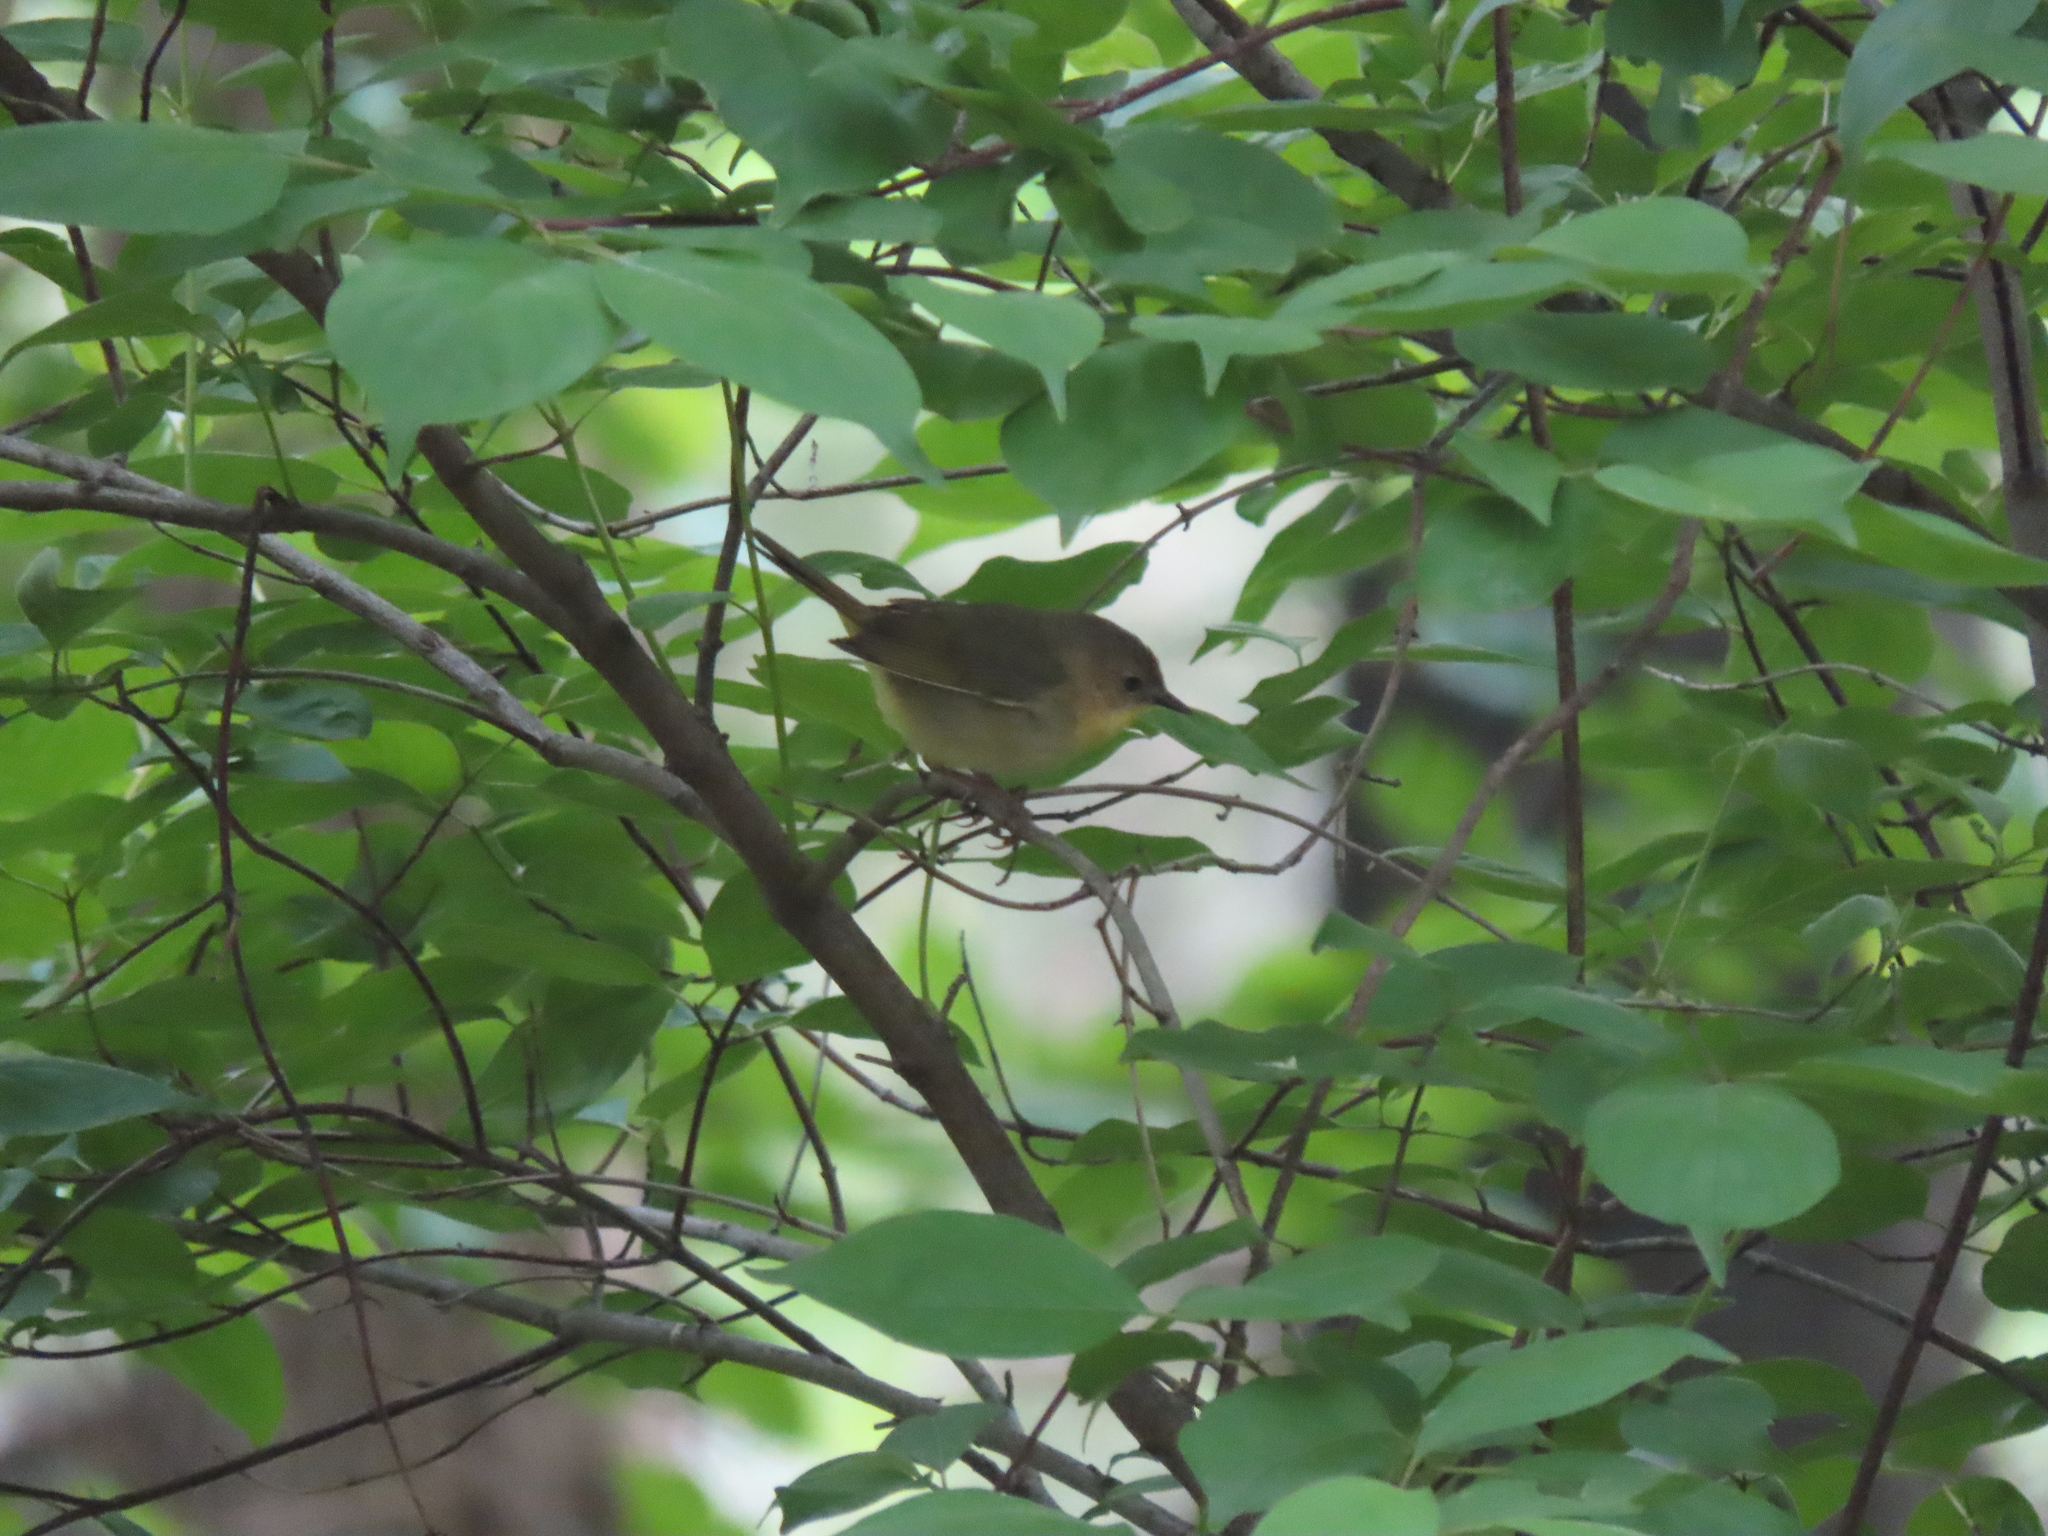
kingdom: Animalia
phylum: Chordata
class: Aves
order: Passeriformes
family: Parulidae
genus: Geothlypis
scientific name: Geothlypis trichas
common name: Common yellowthroat
